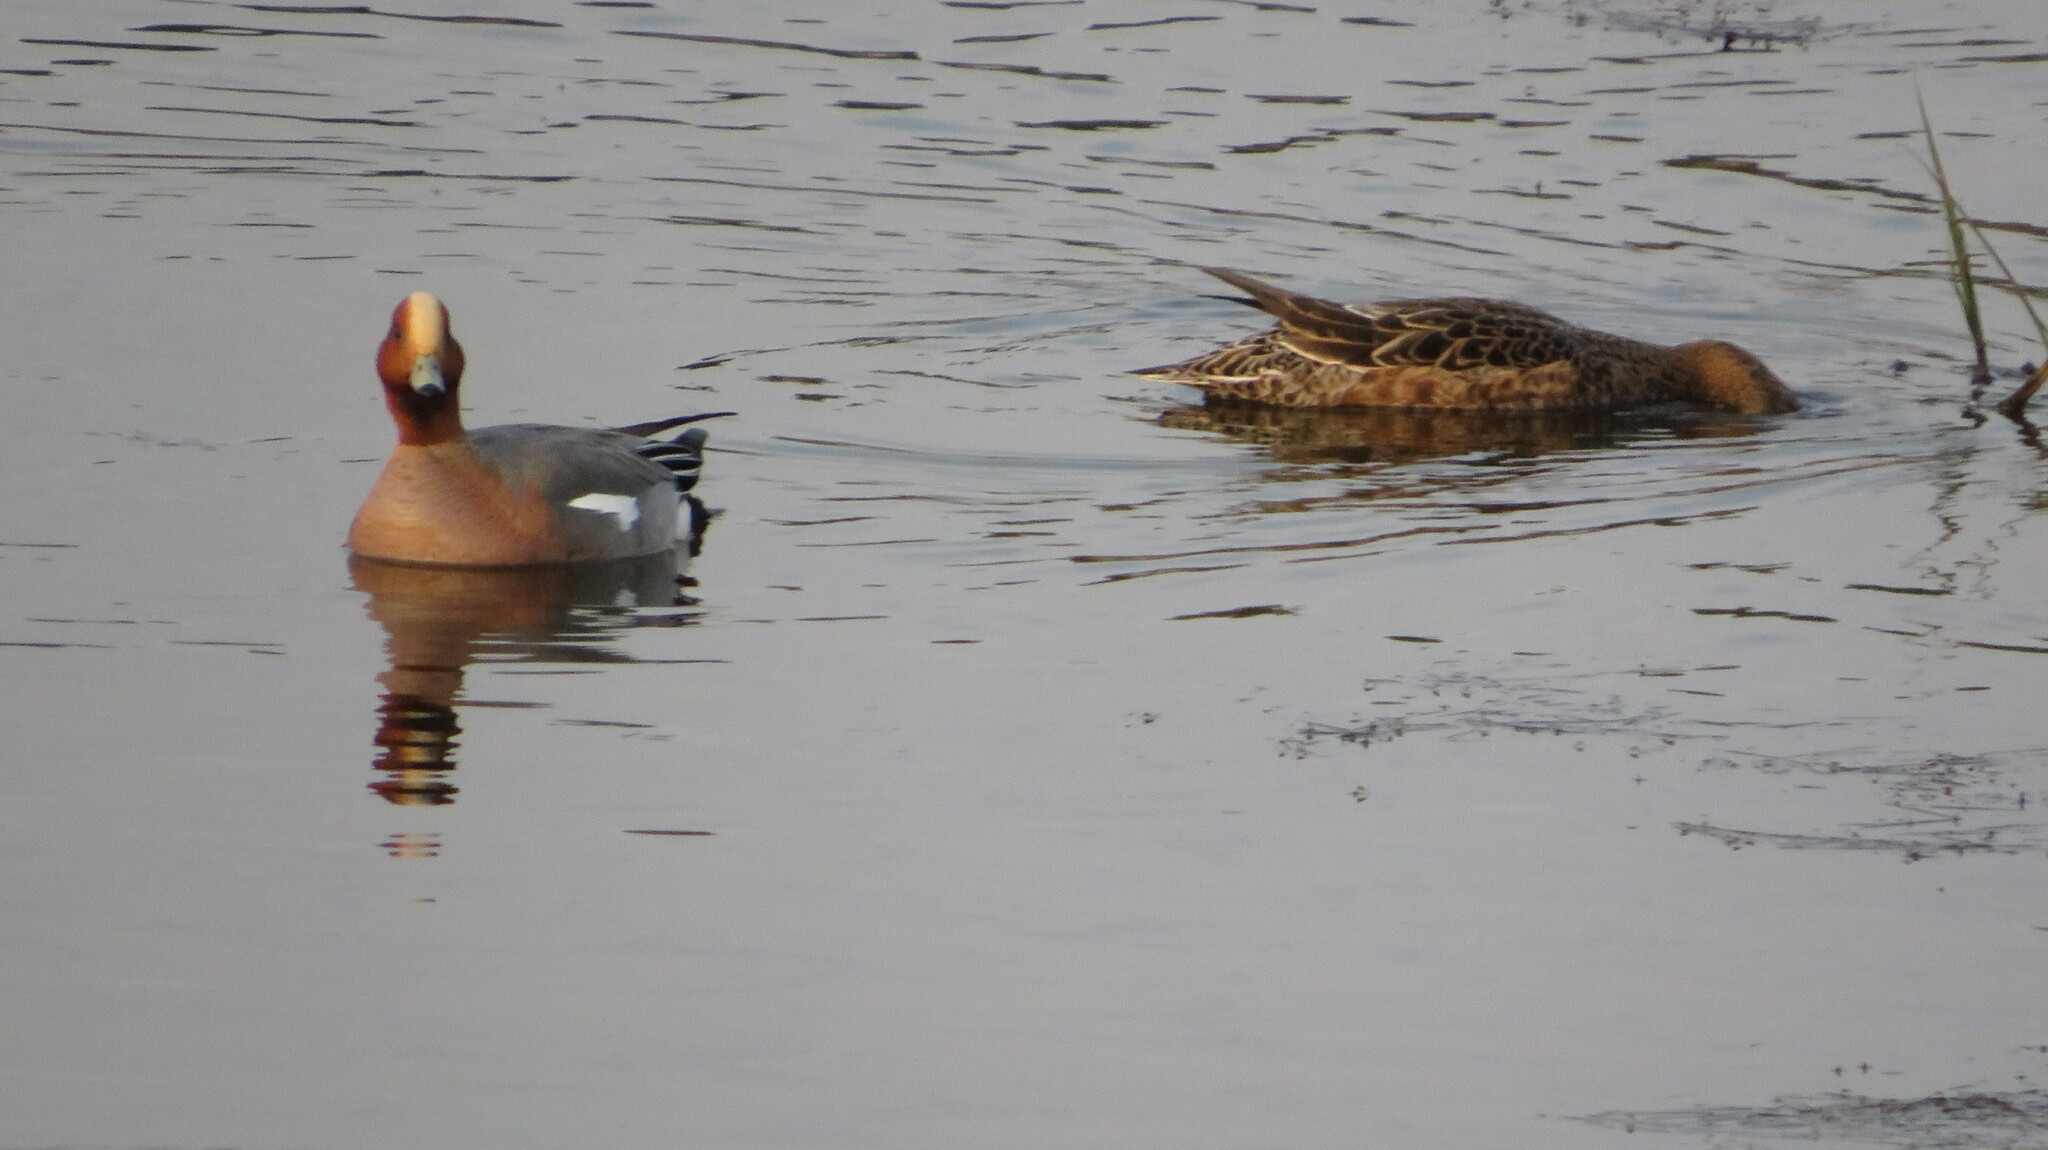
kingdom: Animalia
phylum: Chordata
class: Aves
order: Anseriformes
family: Anatidae
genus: Mareca
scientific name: Mareca penelope
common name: Eurasian wigeon
